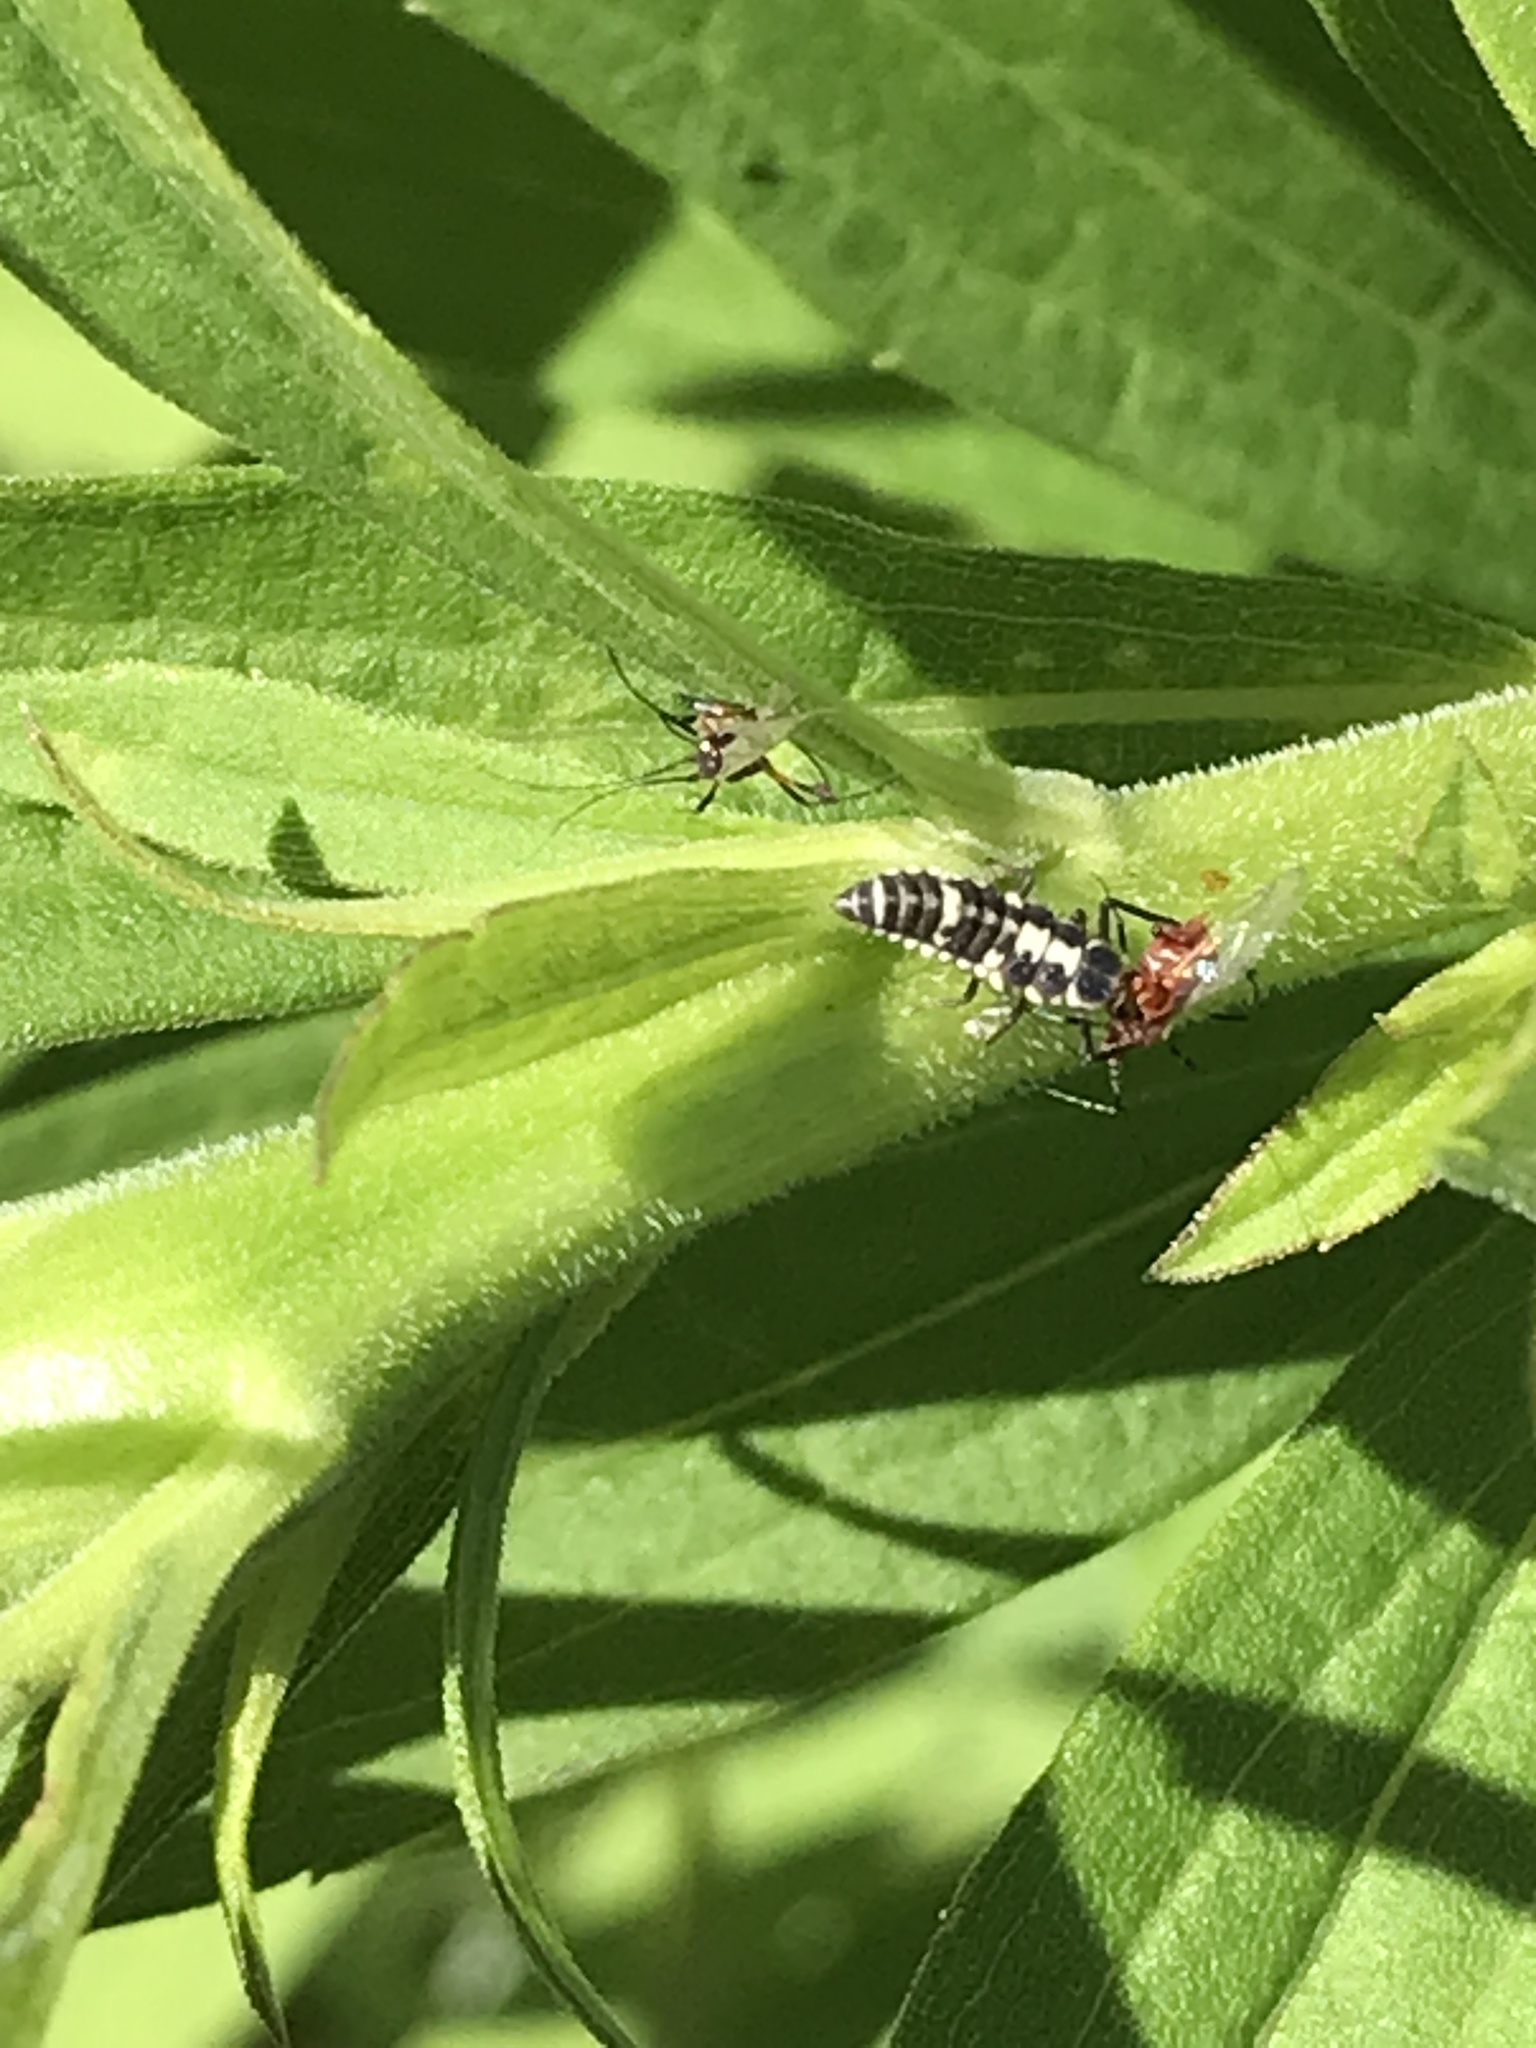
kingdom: Animalia
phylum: Arthropoda
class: Insecta
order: Coleoptera
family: Coccinellidae
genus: Propylaea
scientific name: Propylaea quatuordecimpunctata
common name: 14-spotted ladybird beetle
